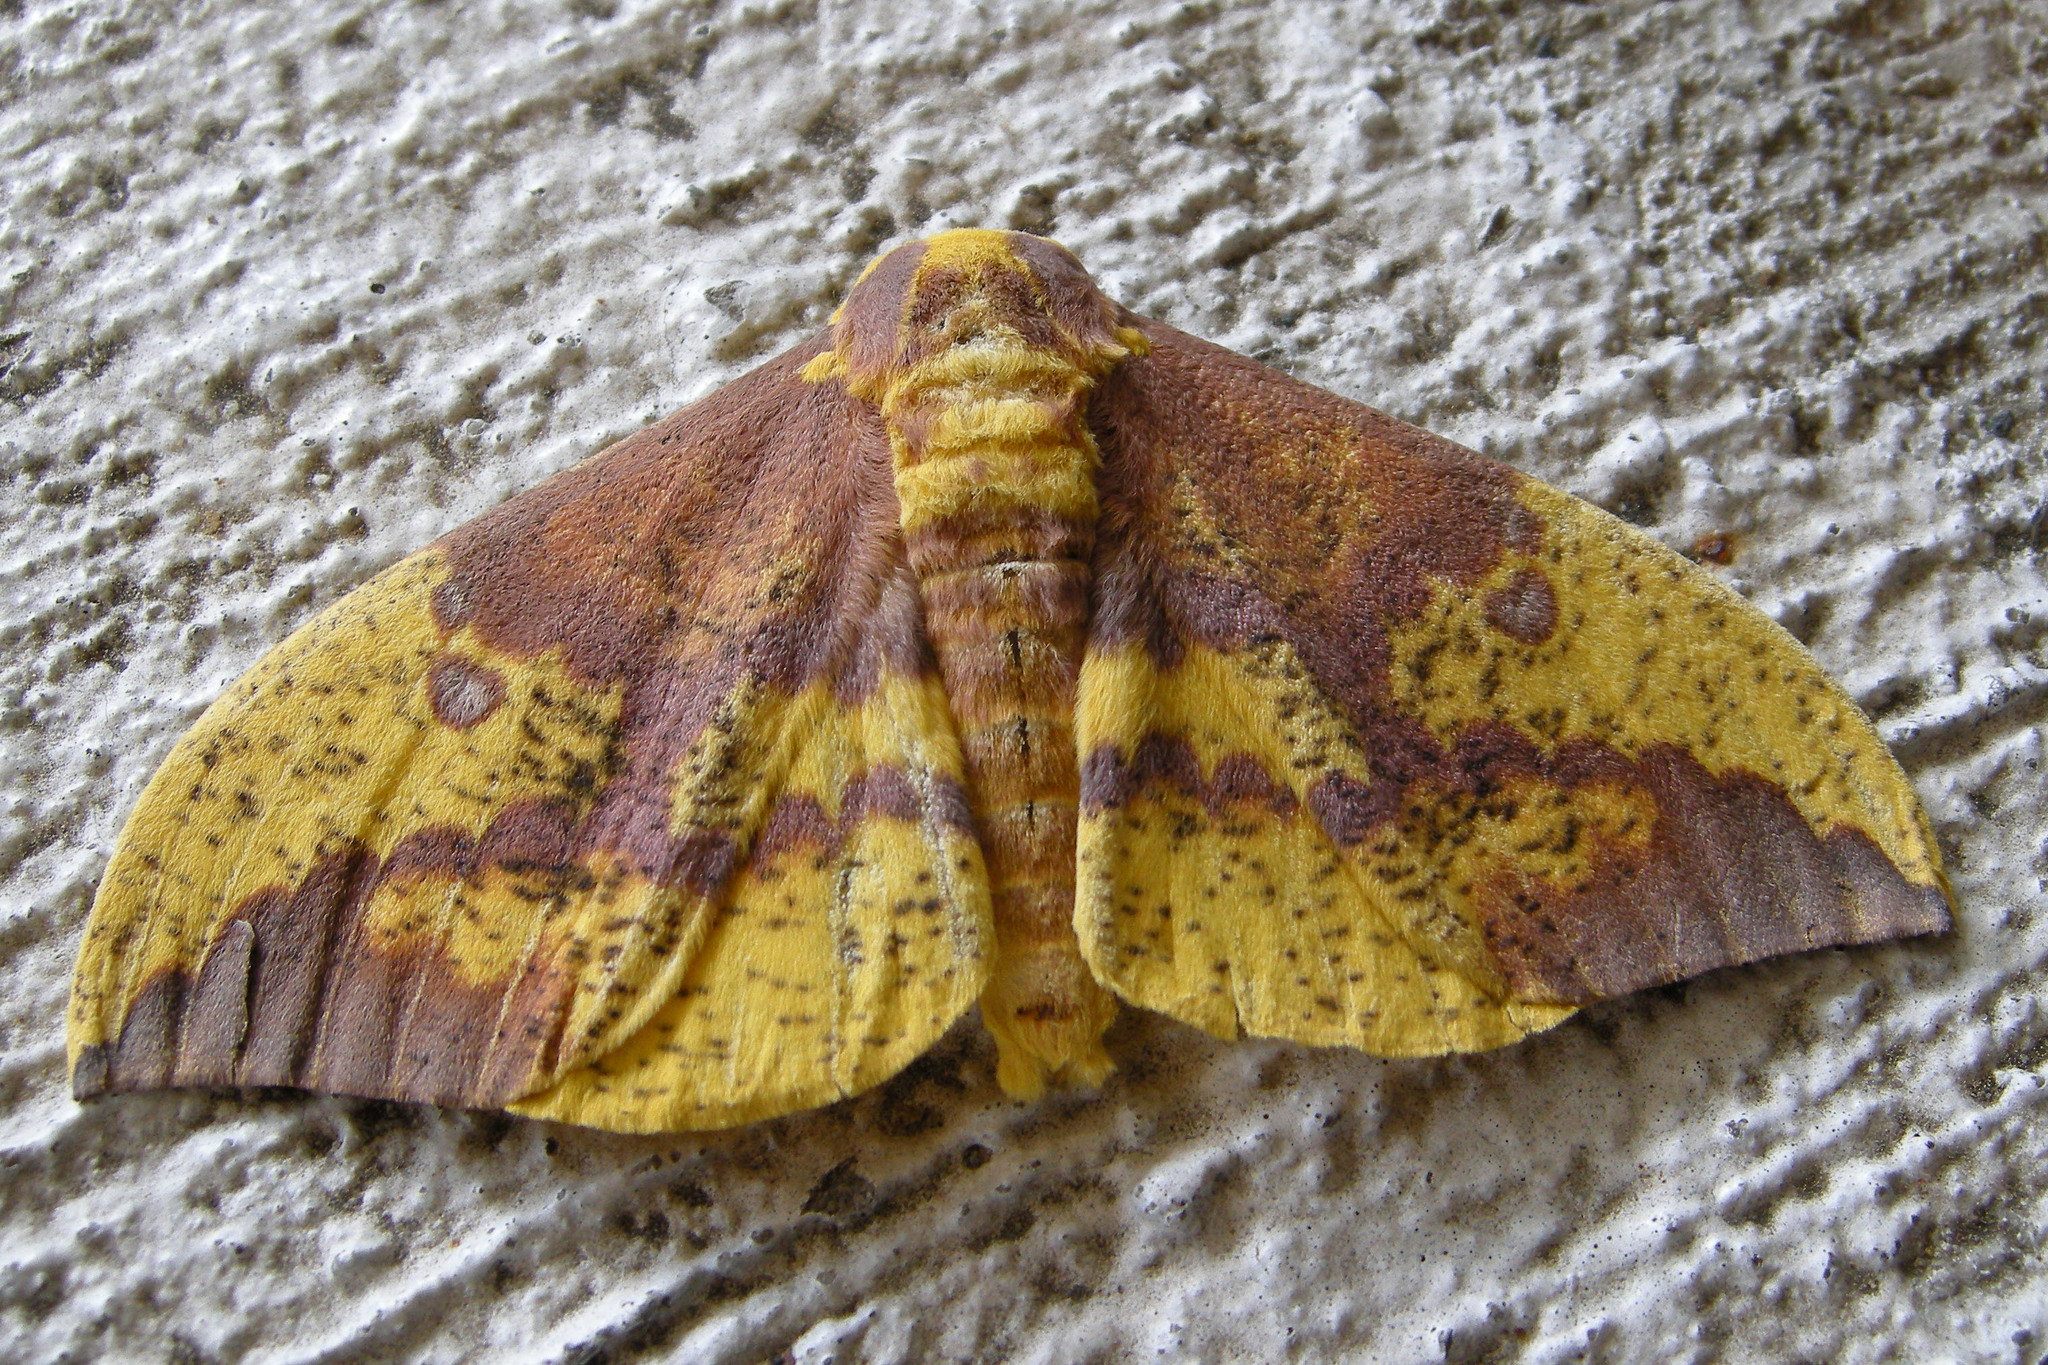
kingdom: Animalia
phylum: Arthropoda
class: Insecta
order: Lepidoptera
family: Saturniidae
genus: Eacles
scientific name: Eacles imperialis
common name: Imperial moth
